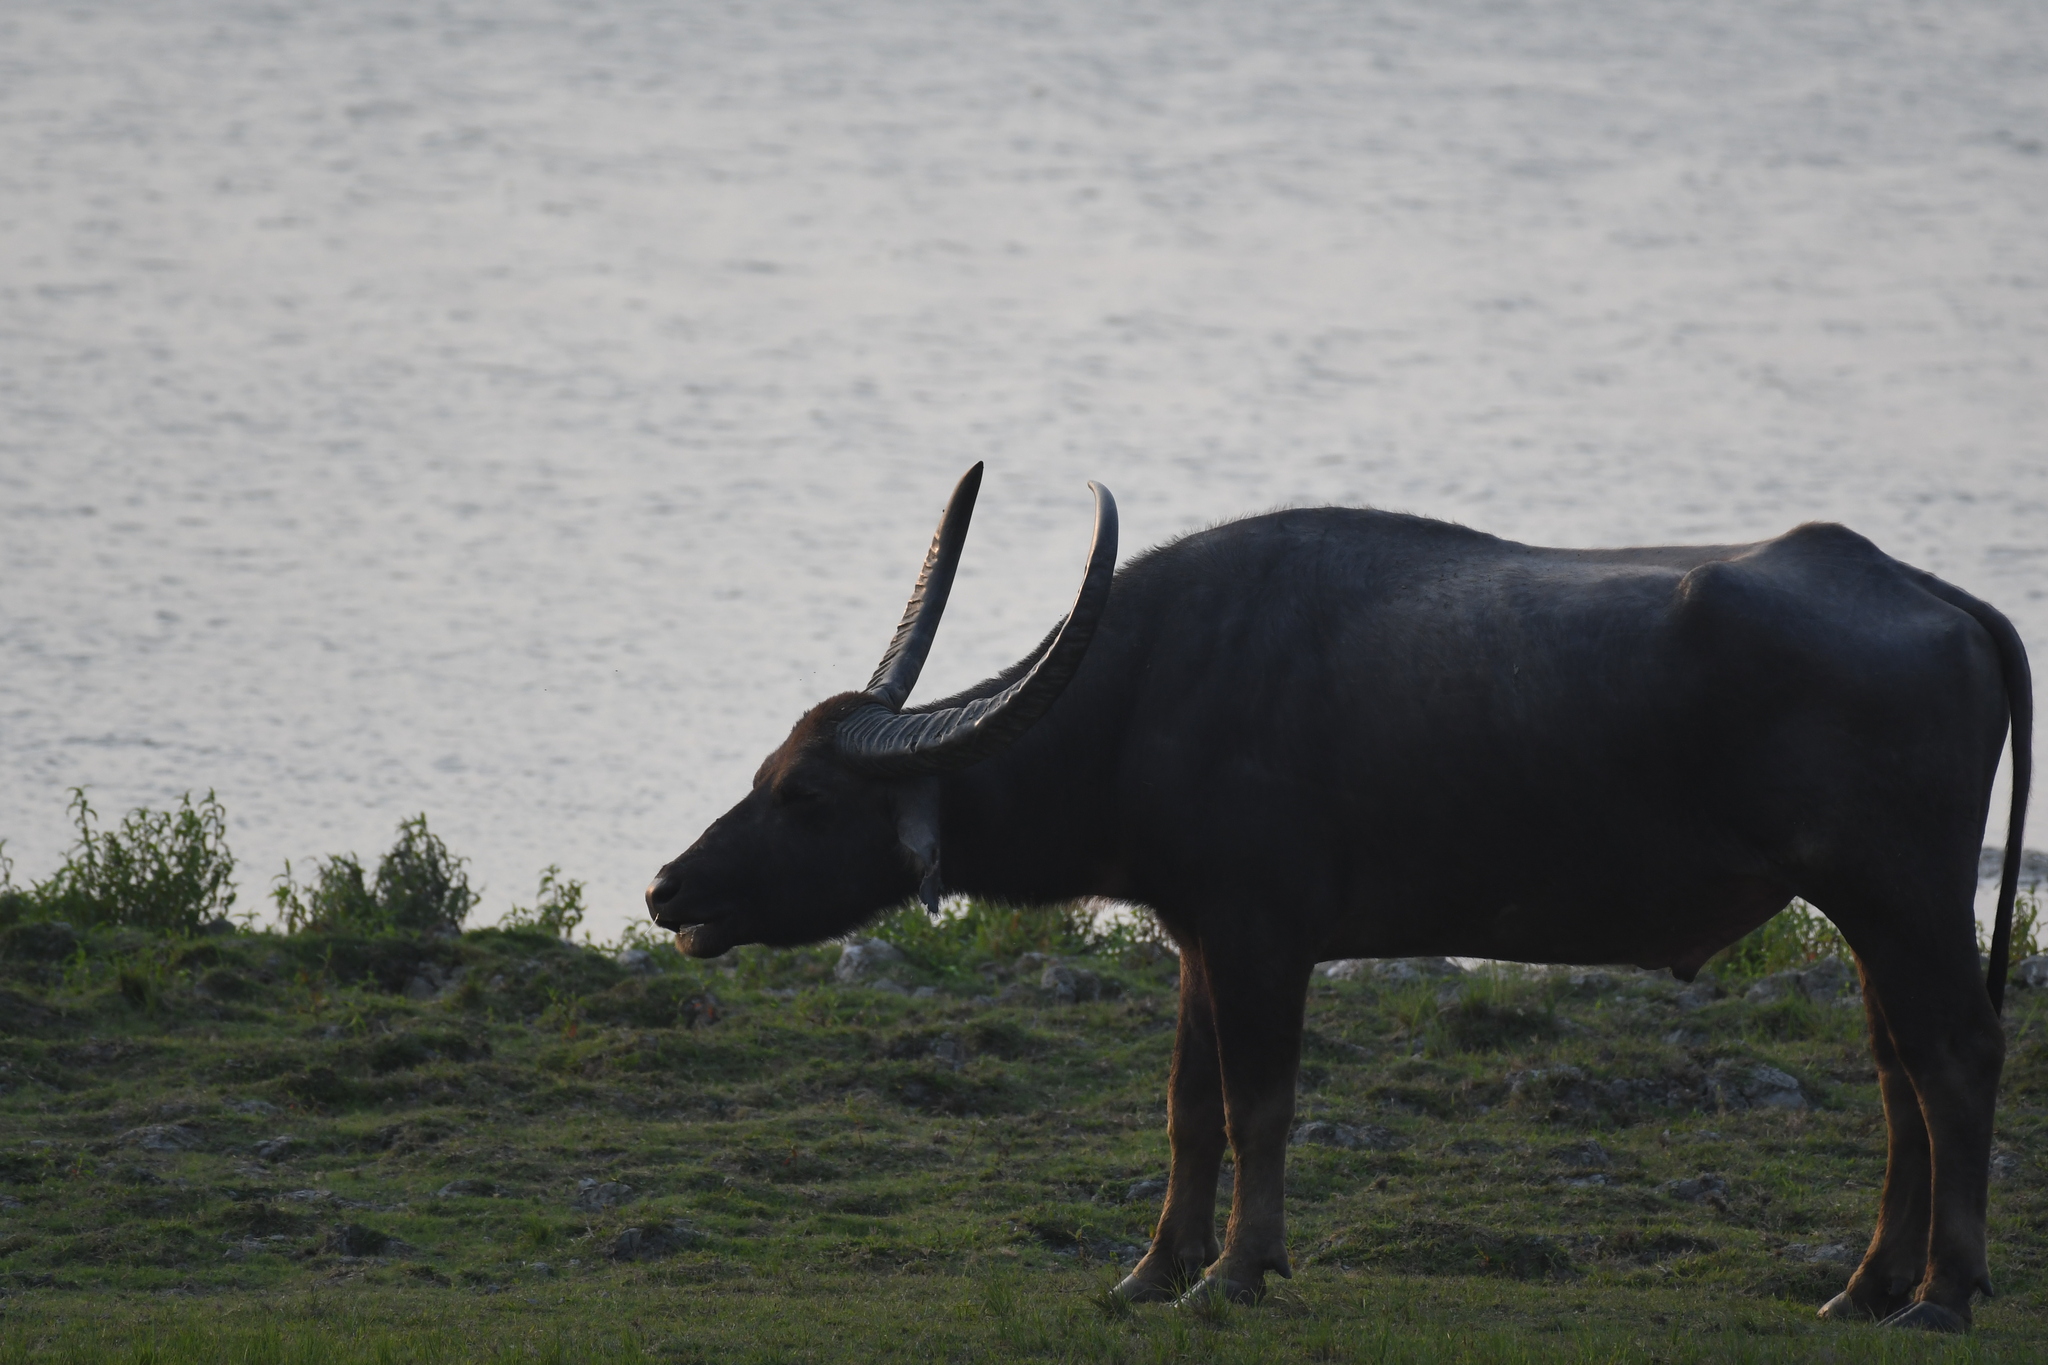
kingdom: Animalia
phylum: Chordata
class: Mammalia
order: Artiodactyla
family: Bovidae
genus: Bubalus
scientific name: Bubalus bubalis
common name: Water buffalo
